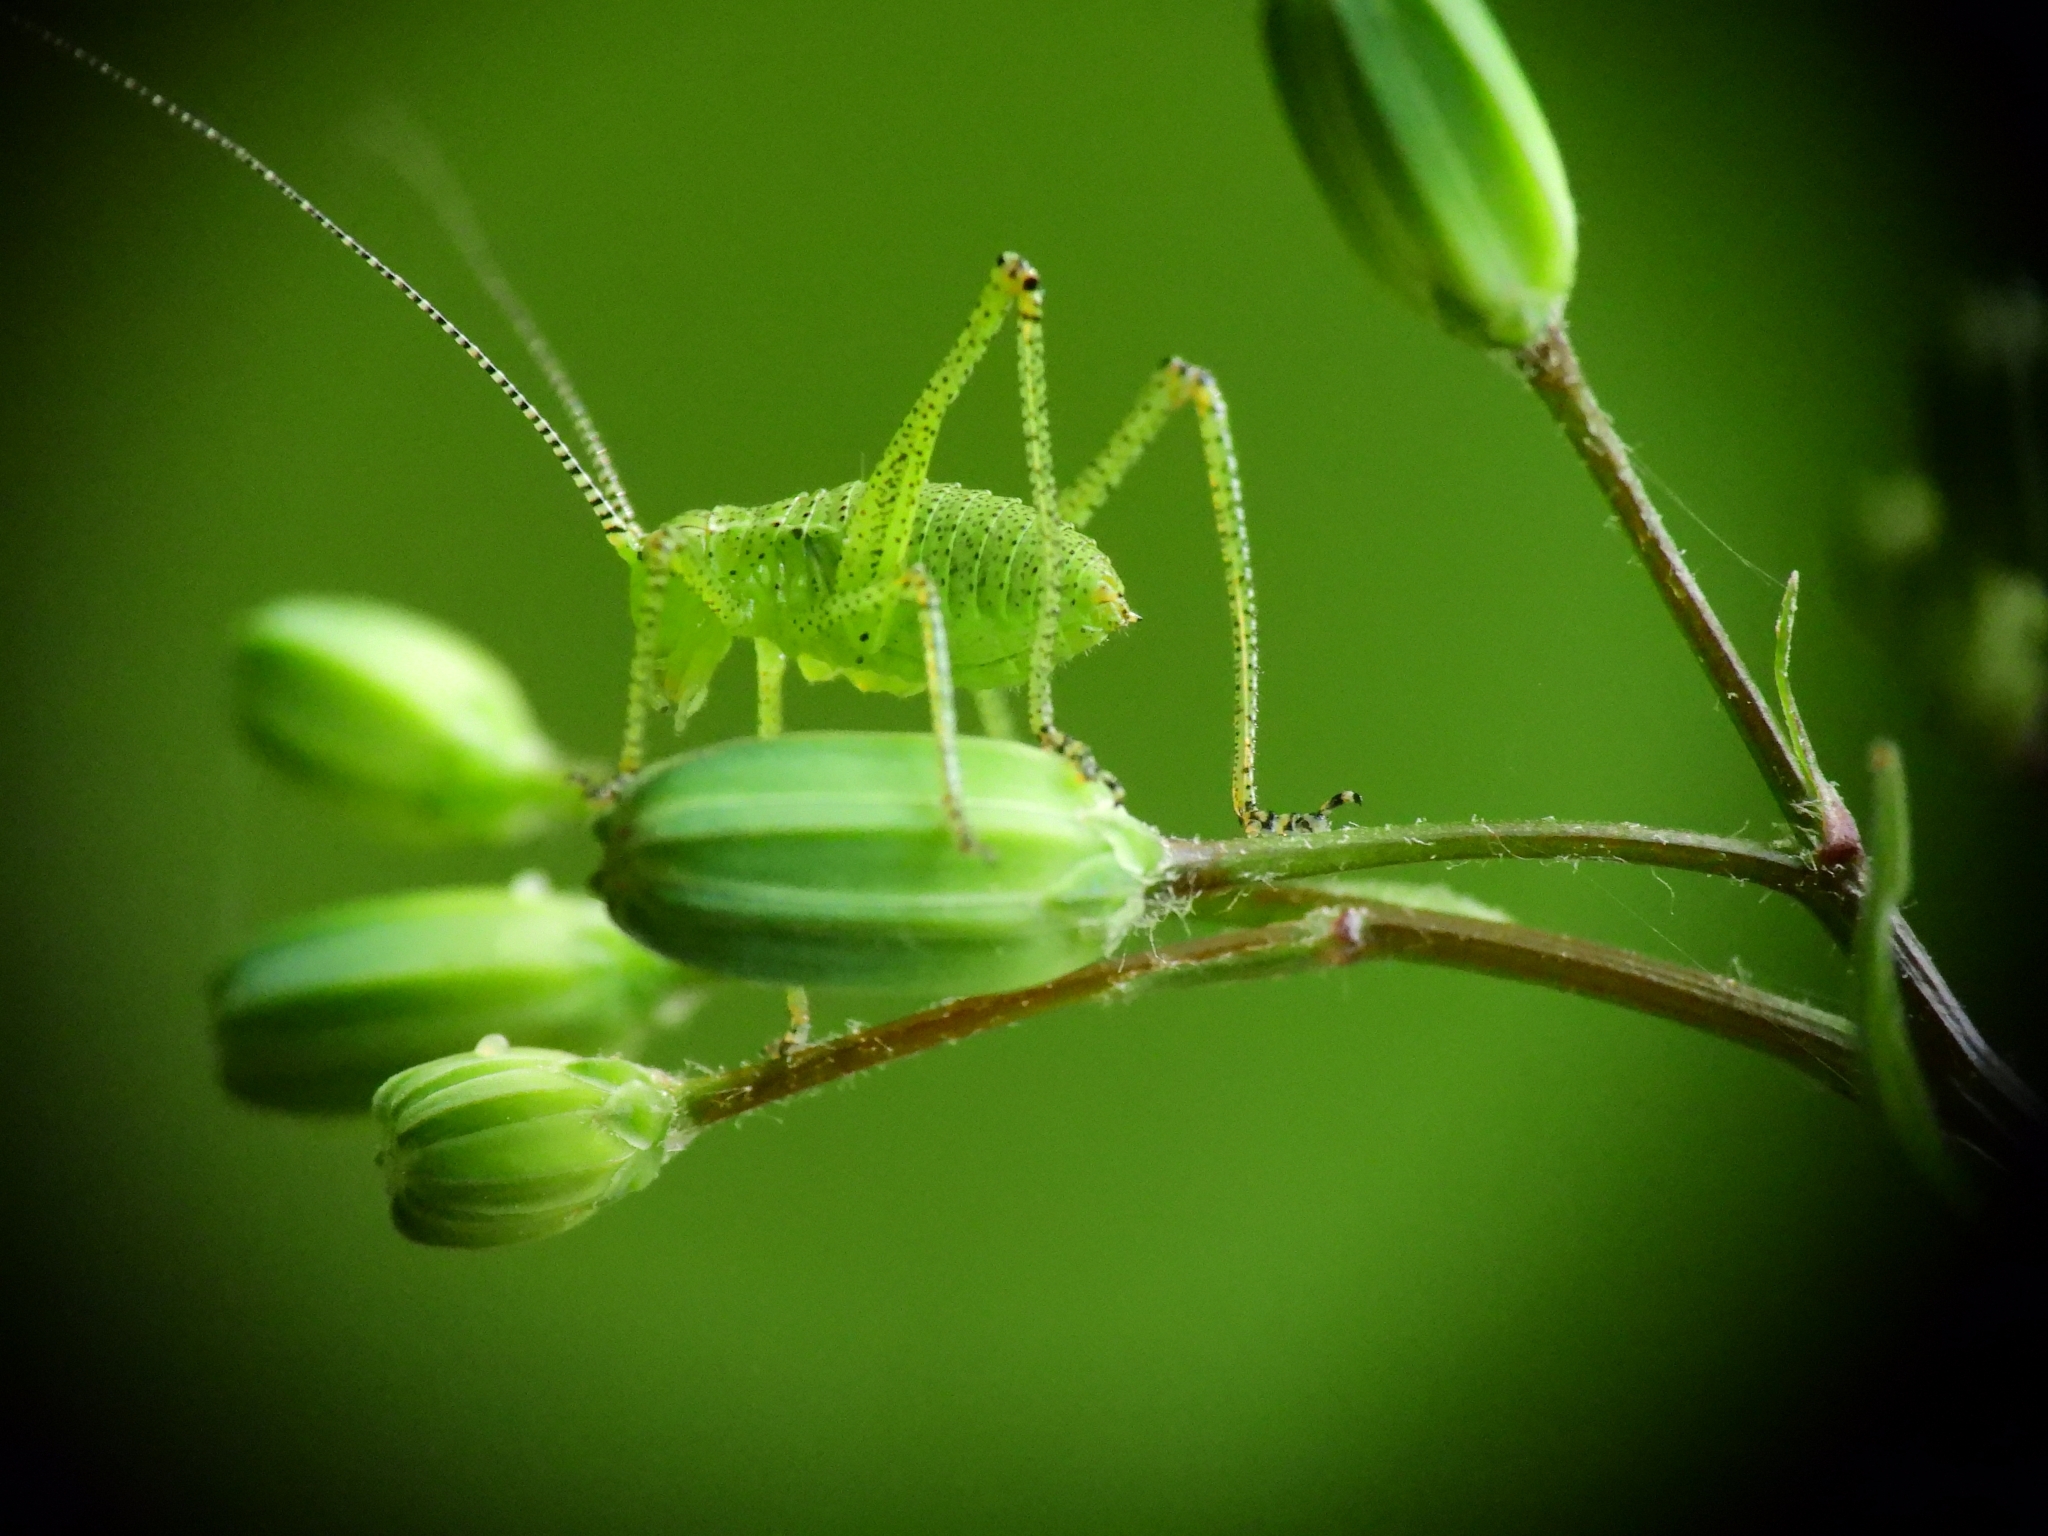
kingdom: Animalia
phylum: Arthropoda
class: Insecta
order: Orthoptera
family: Tettigoniidae
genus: Leptophyes
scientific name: Leptophyes punctatissima
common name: Speckled bush-cricket
